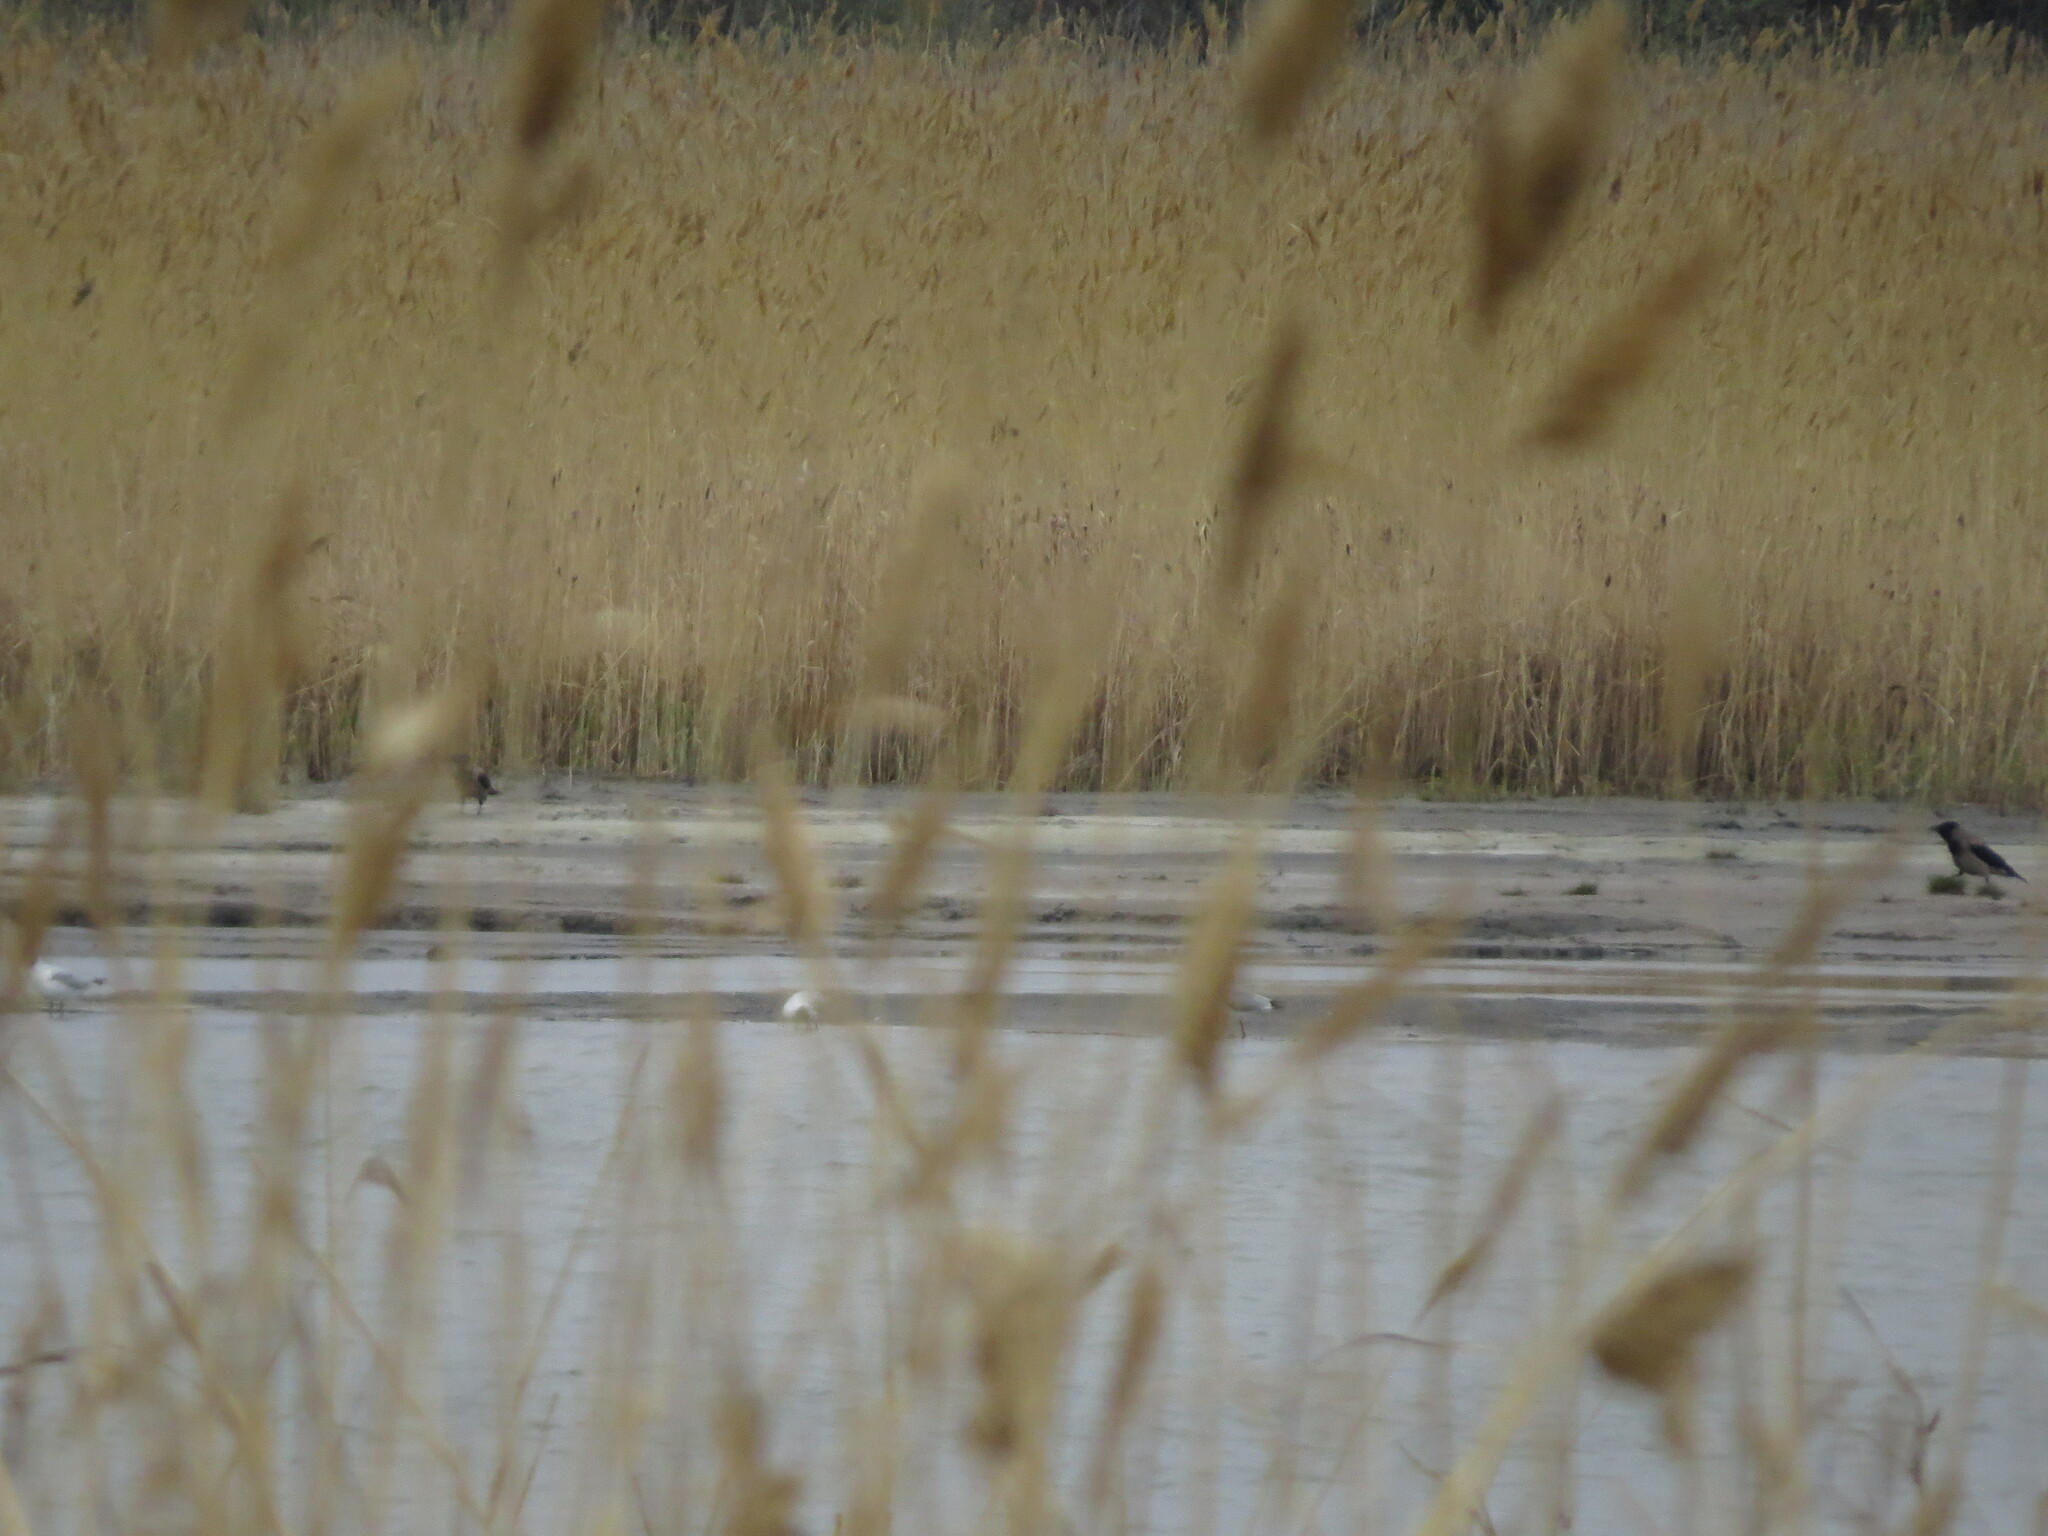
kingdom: Animalia
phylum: Chordata
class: Aves
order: Charadriiformes
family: Laridae
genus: Chroicocephalus
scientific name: Chroicocephalus ridibundus
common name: Black-headed gull
